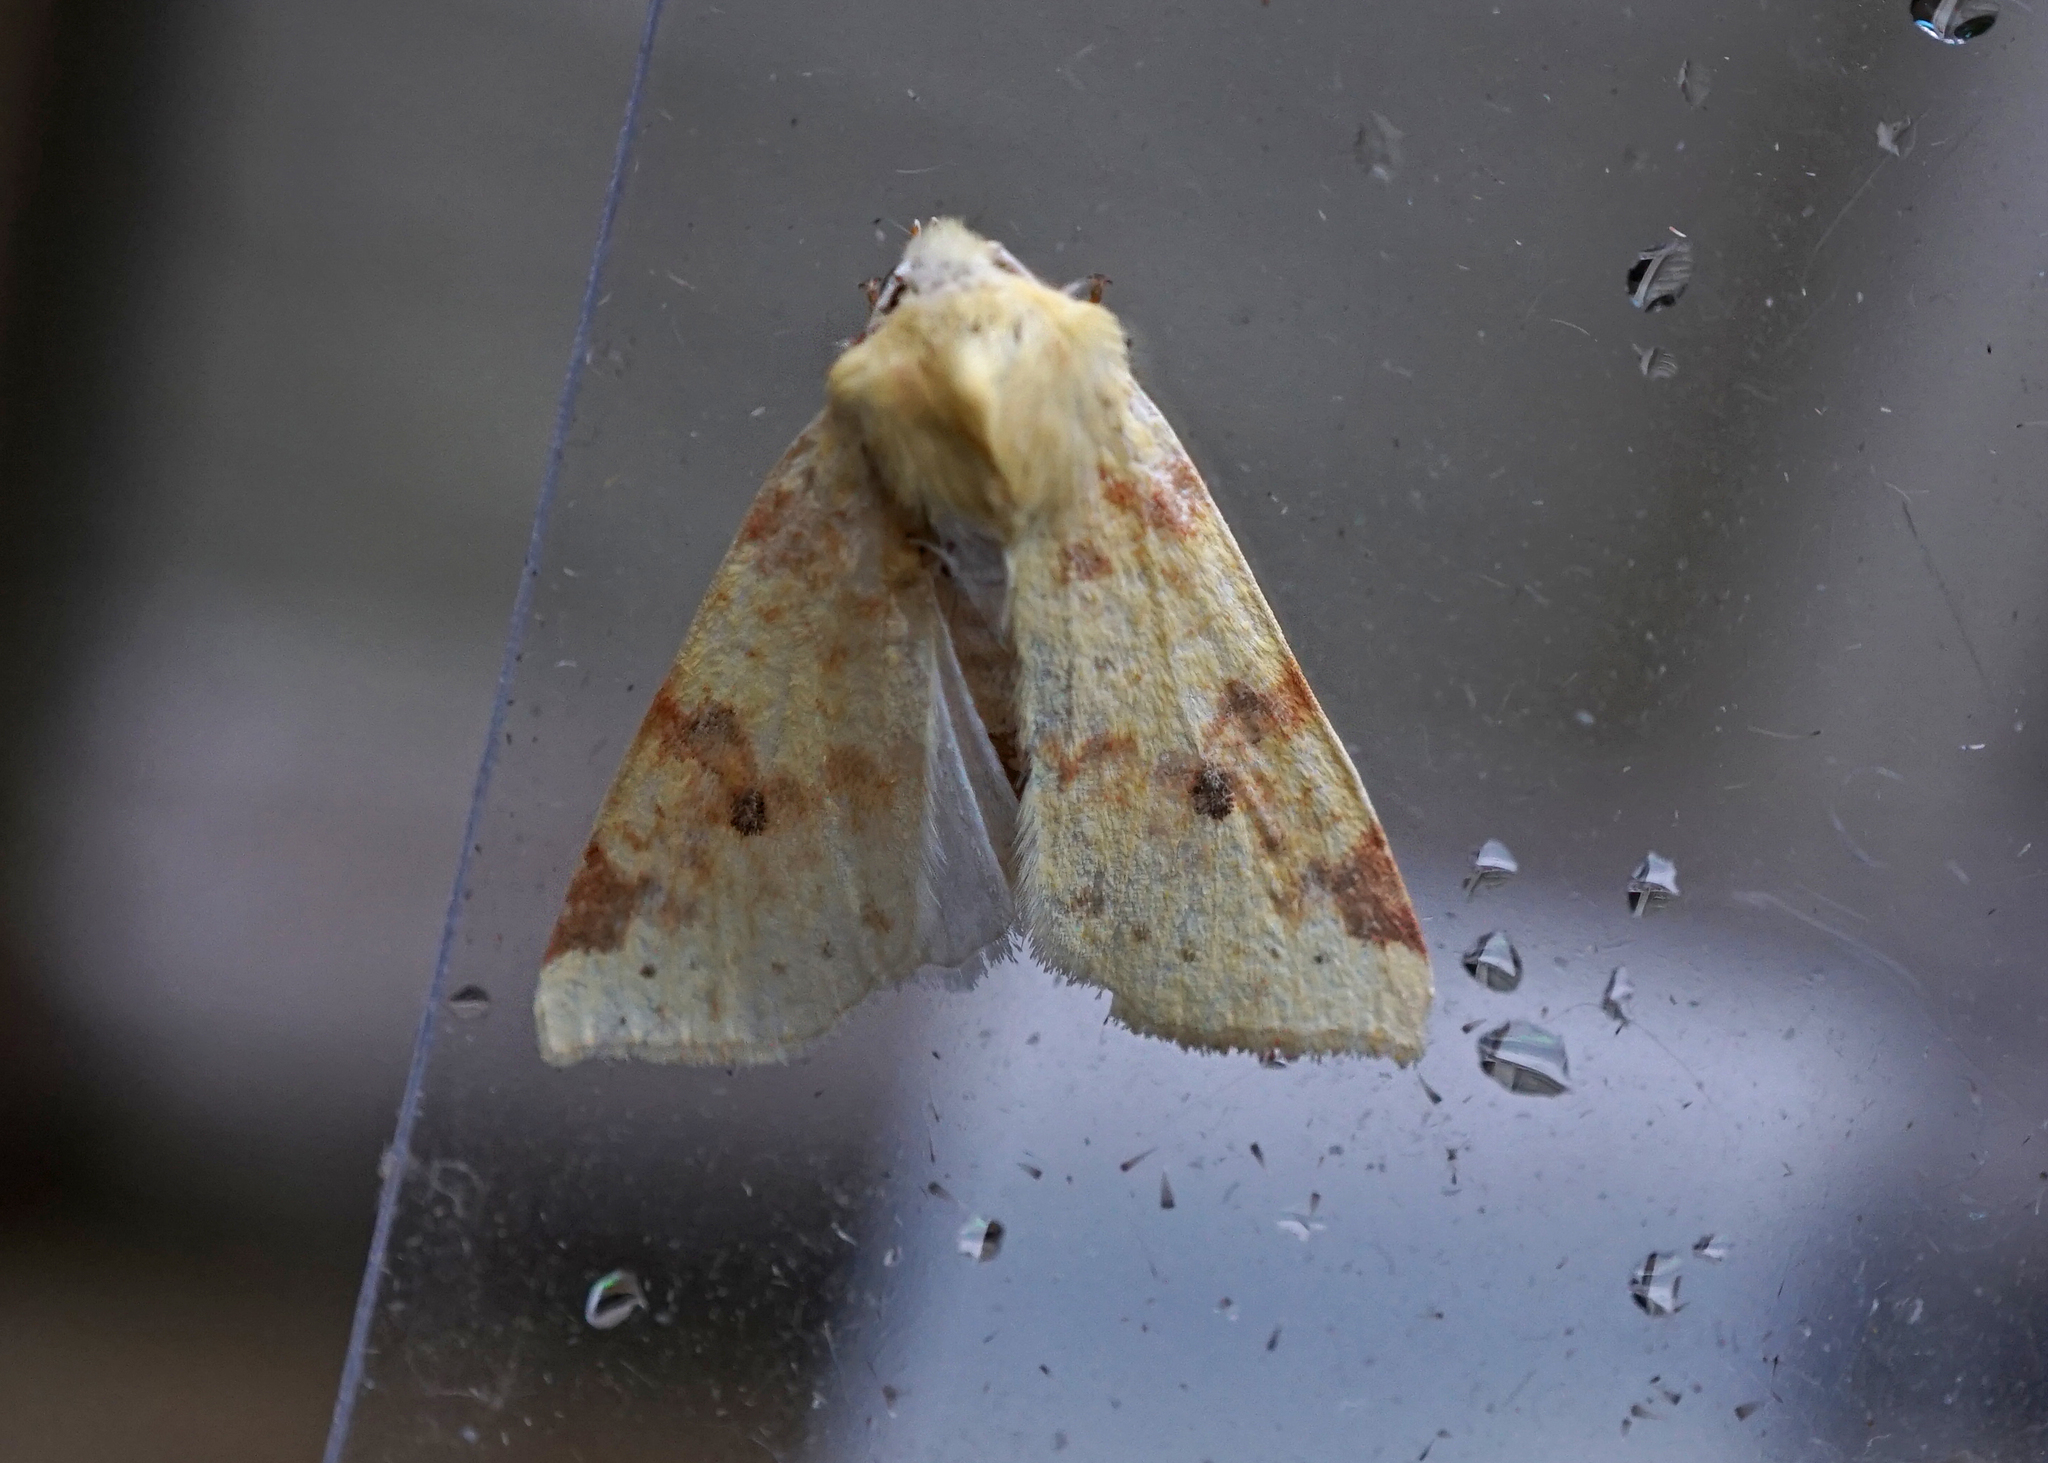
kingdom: Animalia
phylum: Arthropoda
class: Insecta
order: Lepidoptera
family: Noctuidae
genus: Xanthia
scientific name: Xanthia icteritia
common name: The sallow
